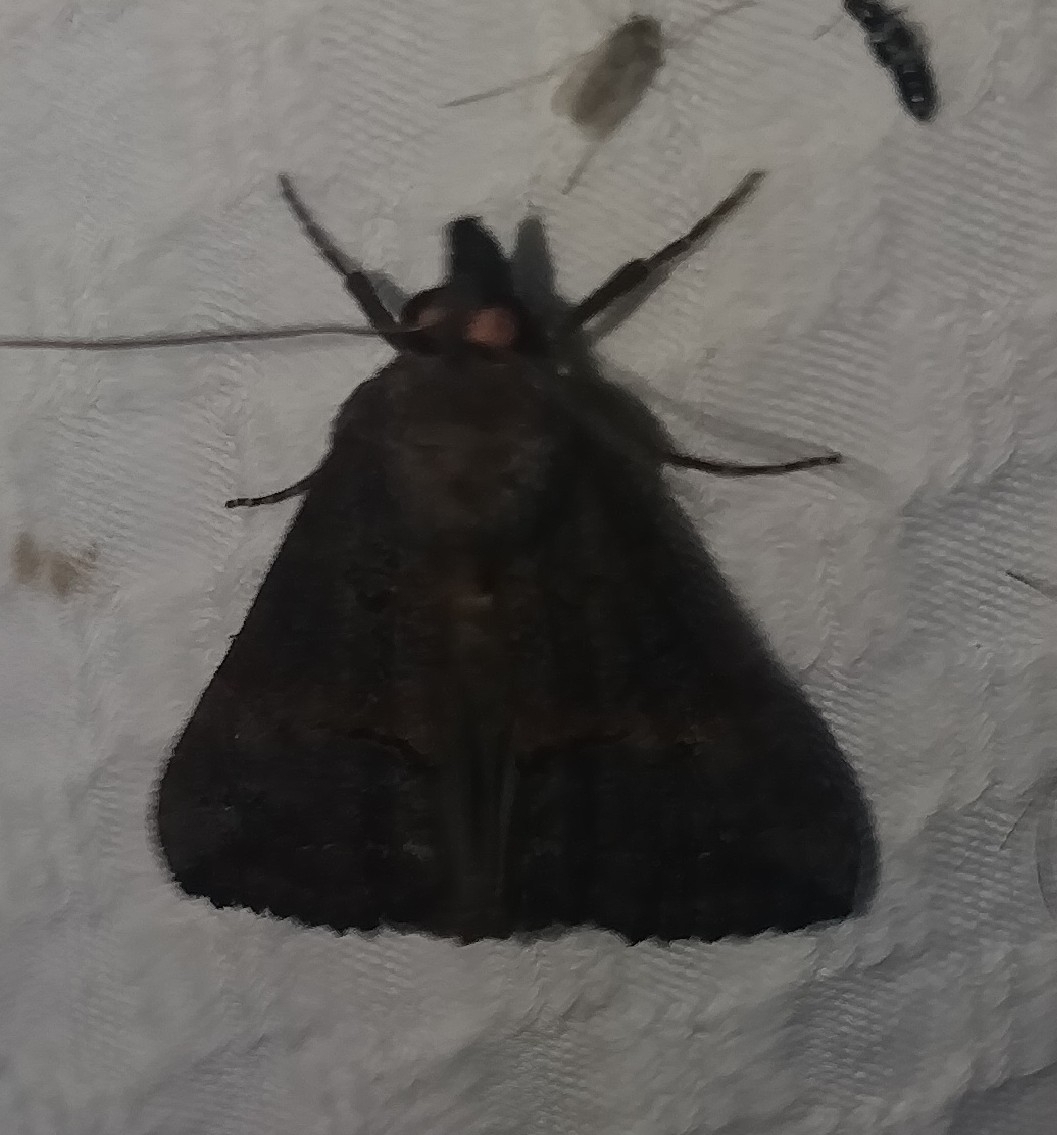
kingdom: Animalia
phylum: Arthropoda
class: Insecta
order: Lepidoptera
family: Erebidae
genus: Hypena
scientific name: Hypena scabra
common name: Green cloverworm
